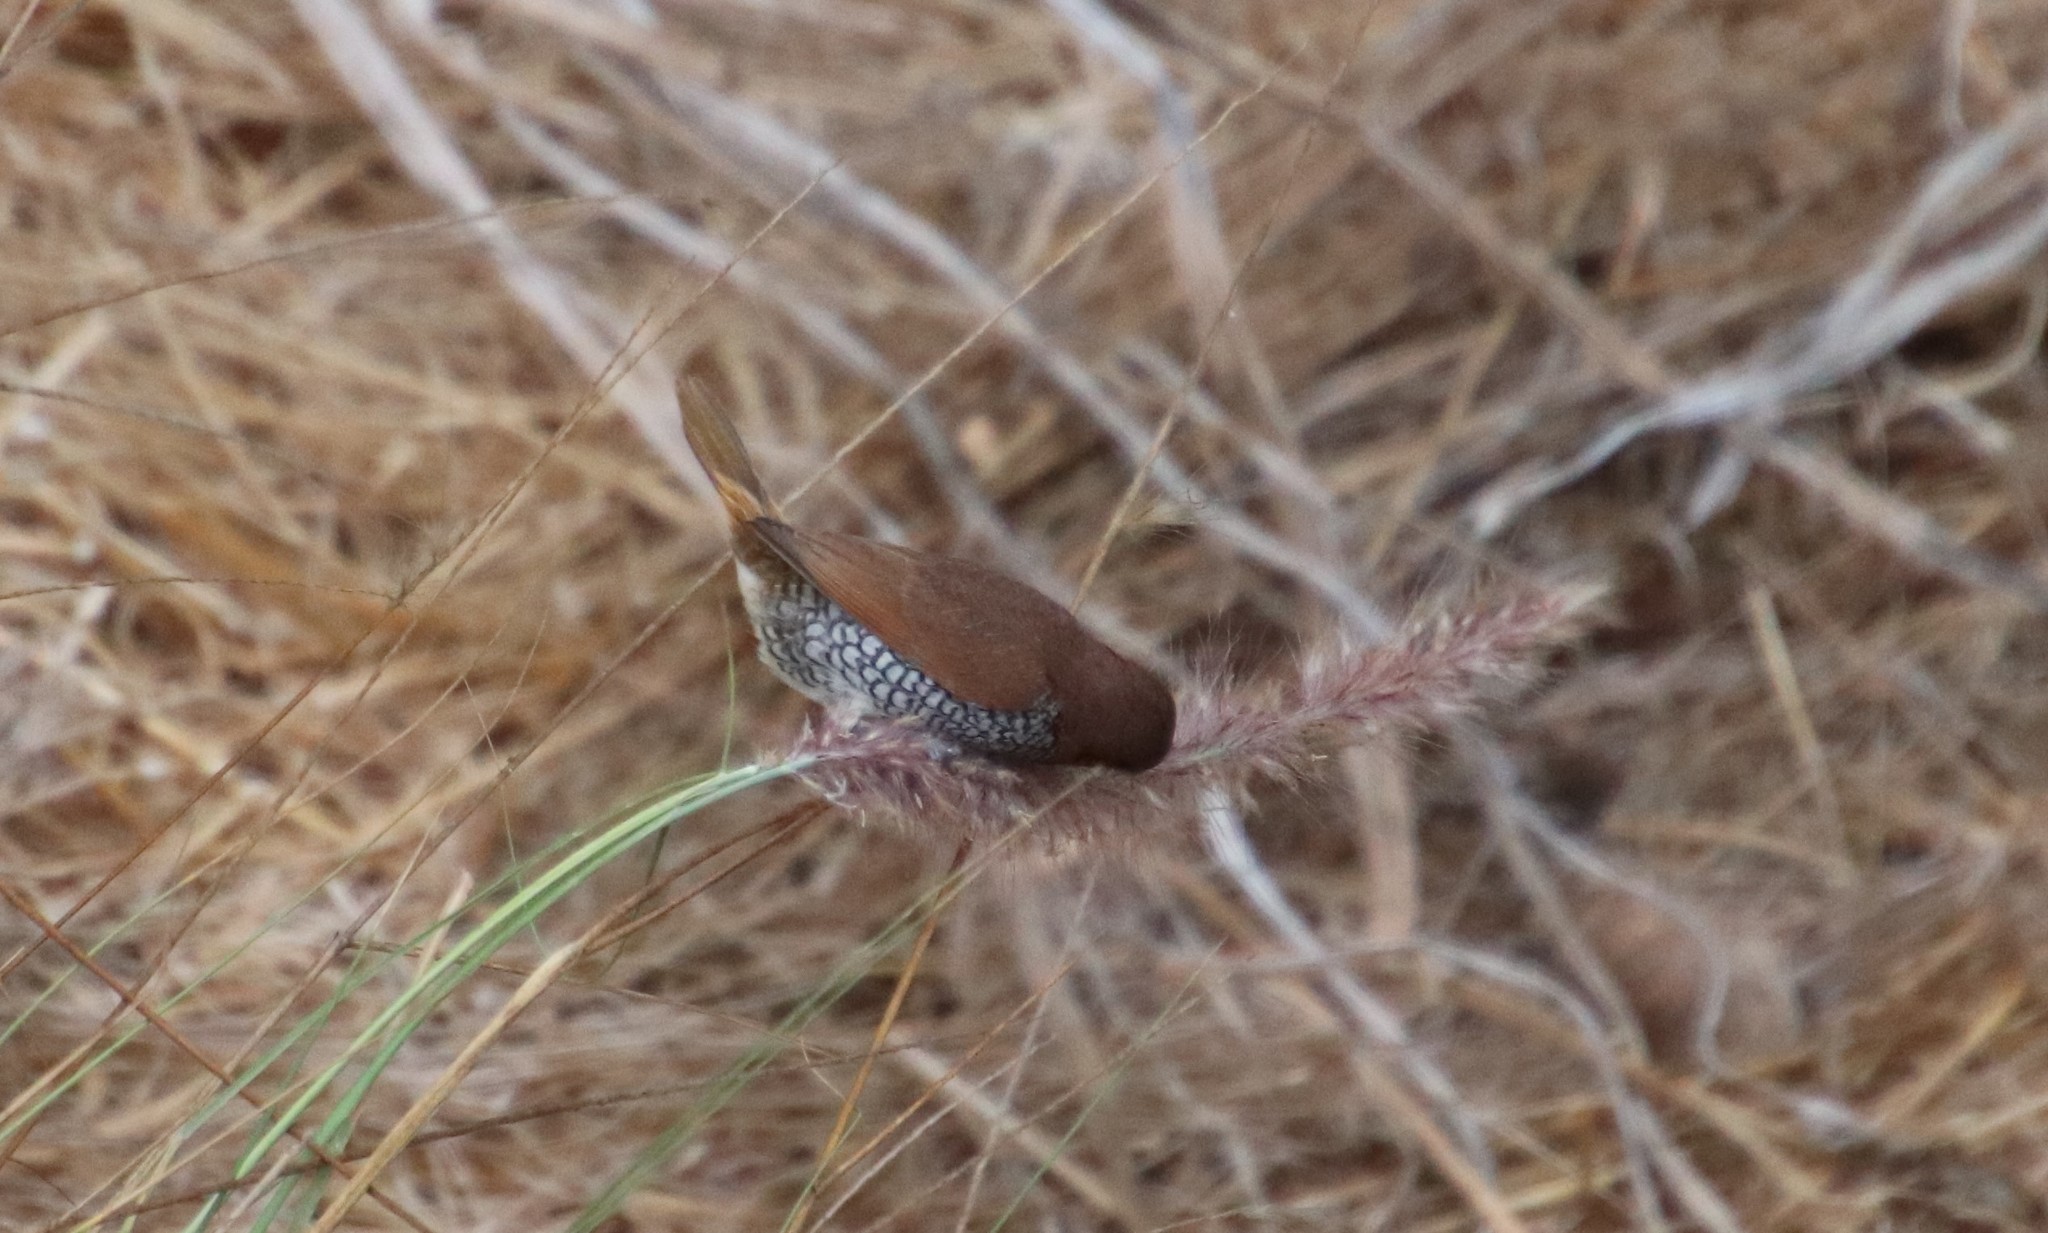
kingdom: Animalia
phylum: Chordata
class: Aves
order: Passeriformes
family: Estrildidae
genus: Lonchura
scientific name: Lonchura punctulata
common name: Scaly-breasted munia
